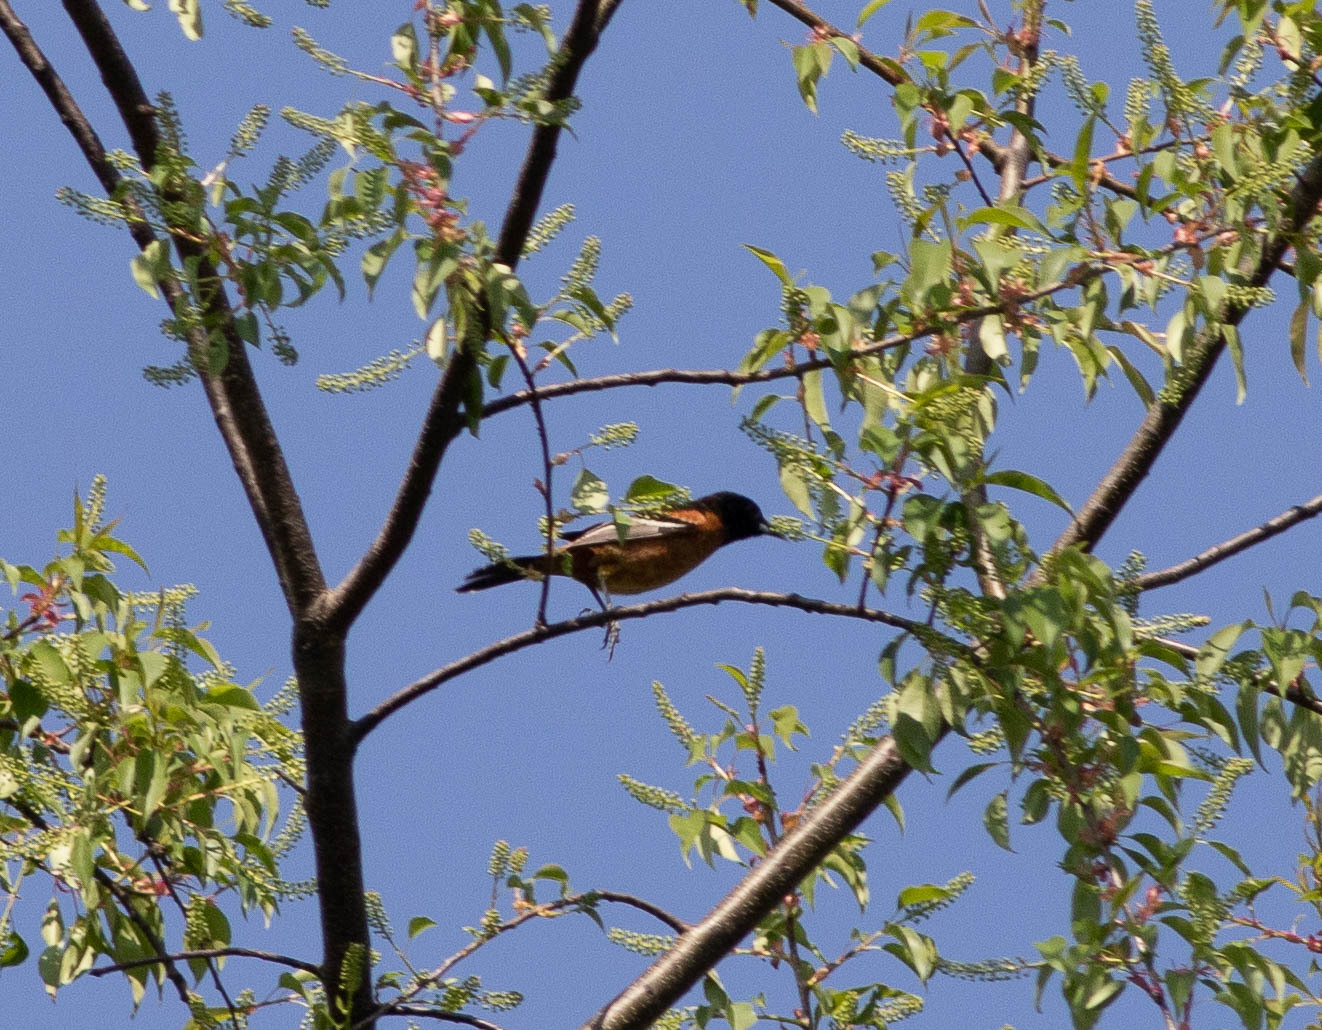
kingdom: Animalia
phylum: Chordata
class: Aves
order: Passeriformes
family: Icteridae
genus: Icterus
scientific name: Icterus spurius
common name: Orchard oriole
